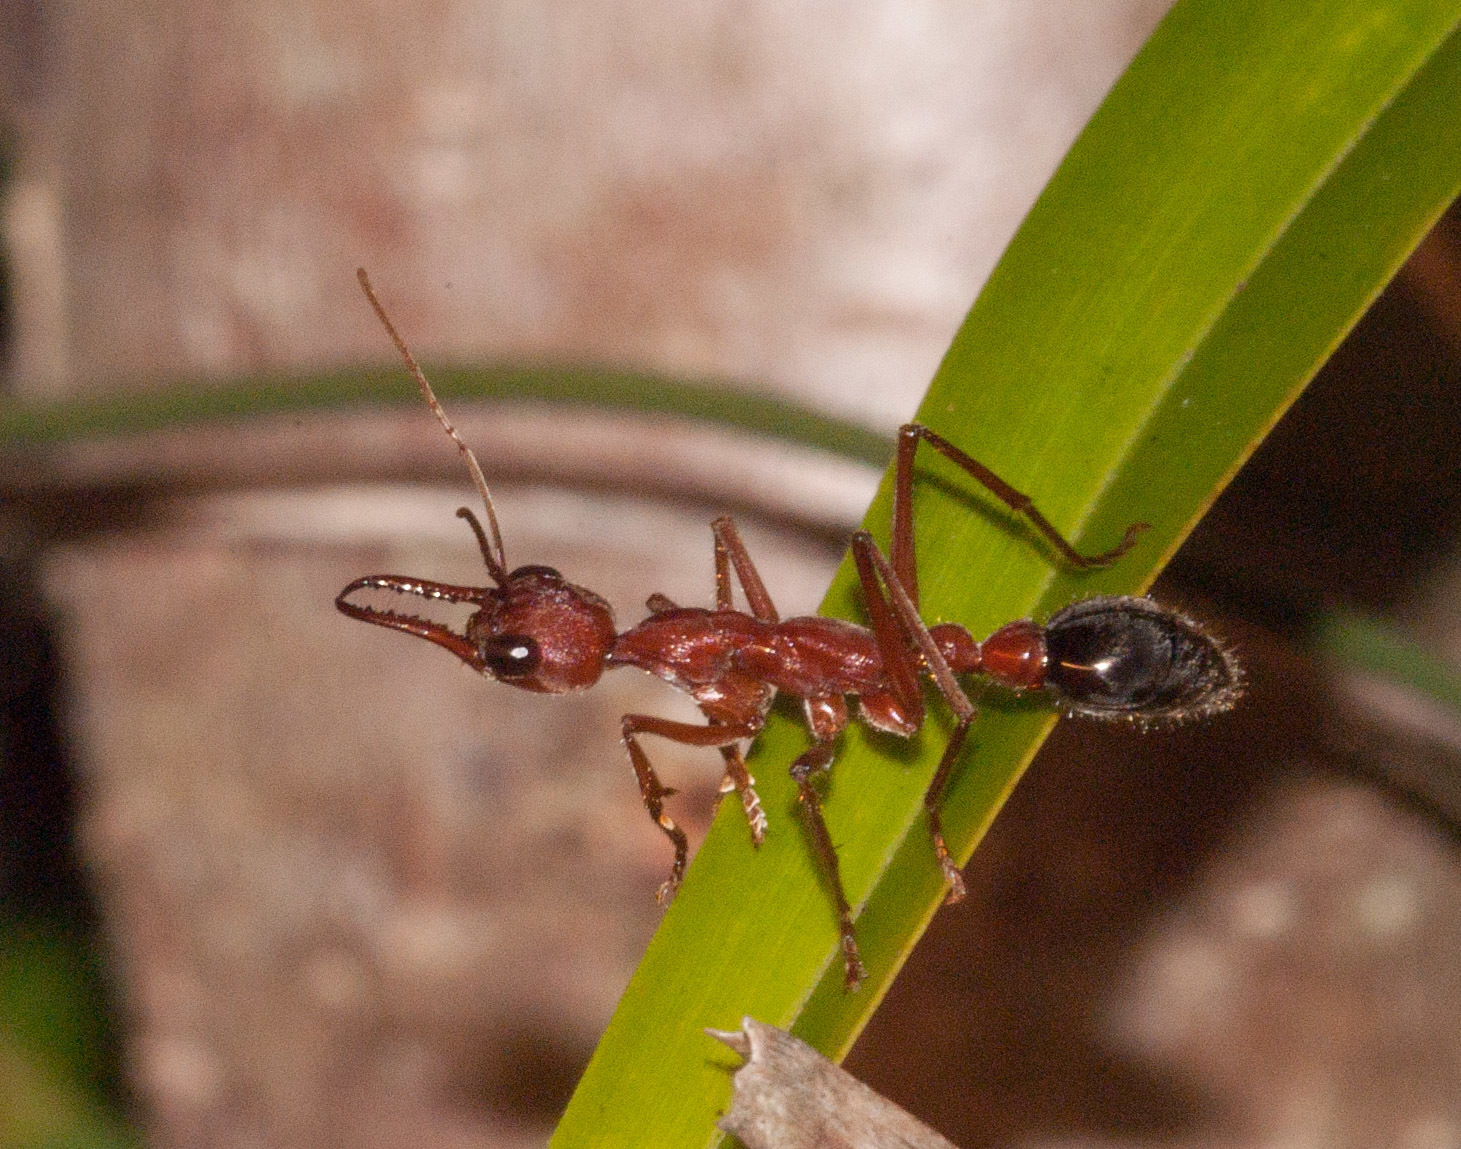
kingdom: Animalia
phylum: Arthropoda
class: Insecta
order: Hymenoptera
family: Formicidae
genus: Myrmecia
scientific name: Myrmecia brevinoda
